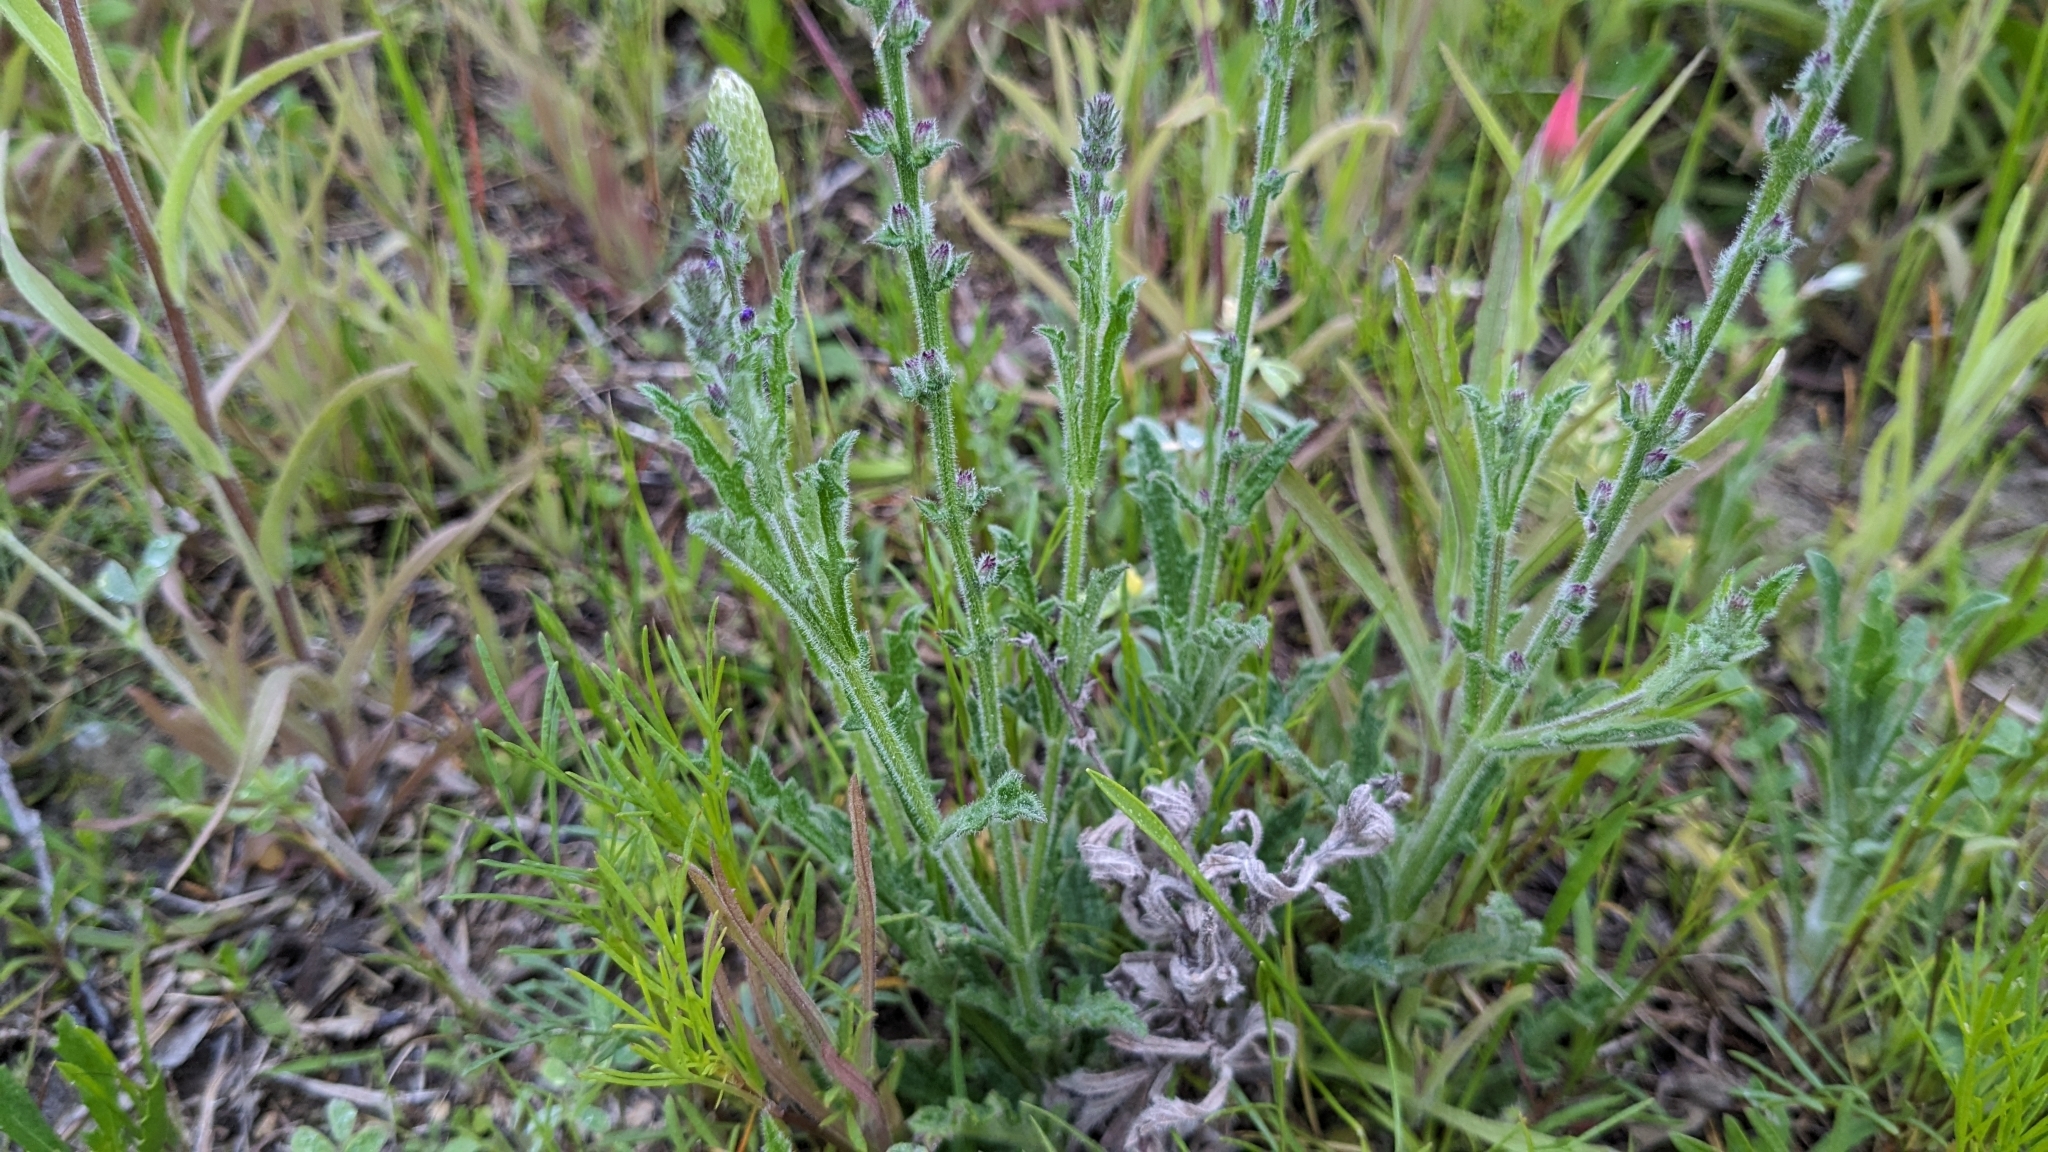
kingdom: Plantae
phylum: Tracheophyta
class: Magnoliopsida
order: Lamiales
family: Verbenaceae
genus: Verbena
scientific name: Verbena canescens
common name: Gray vervain
